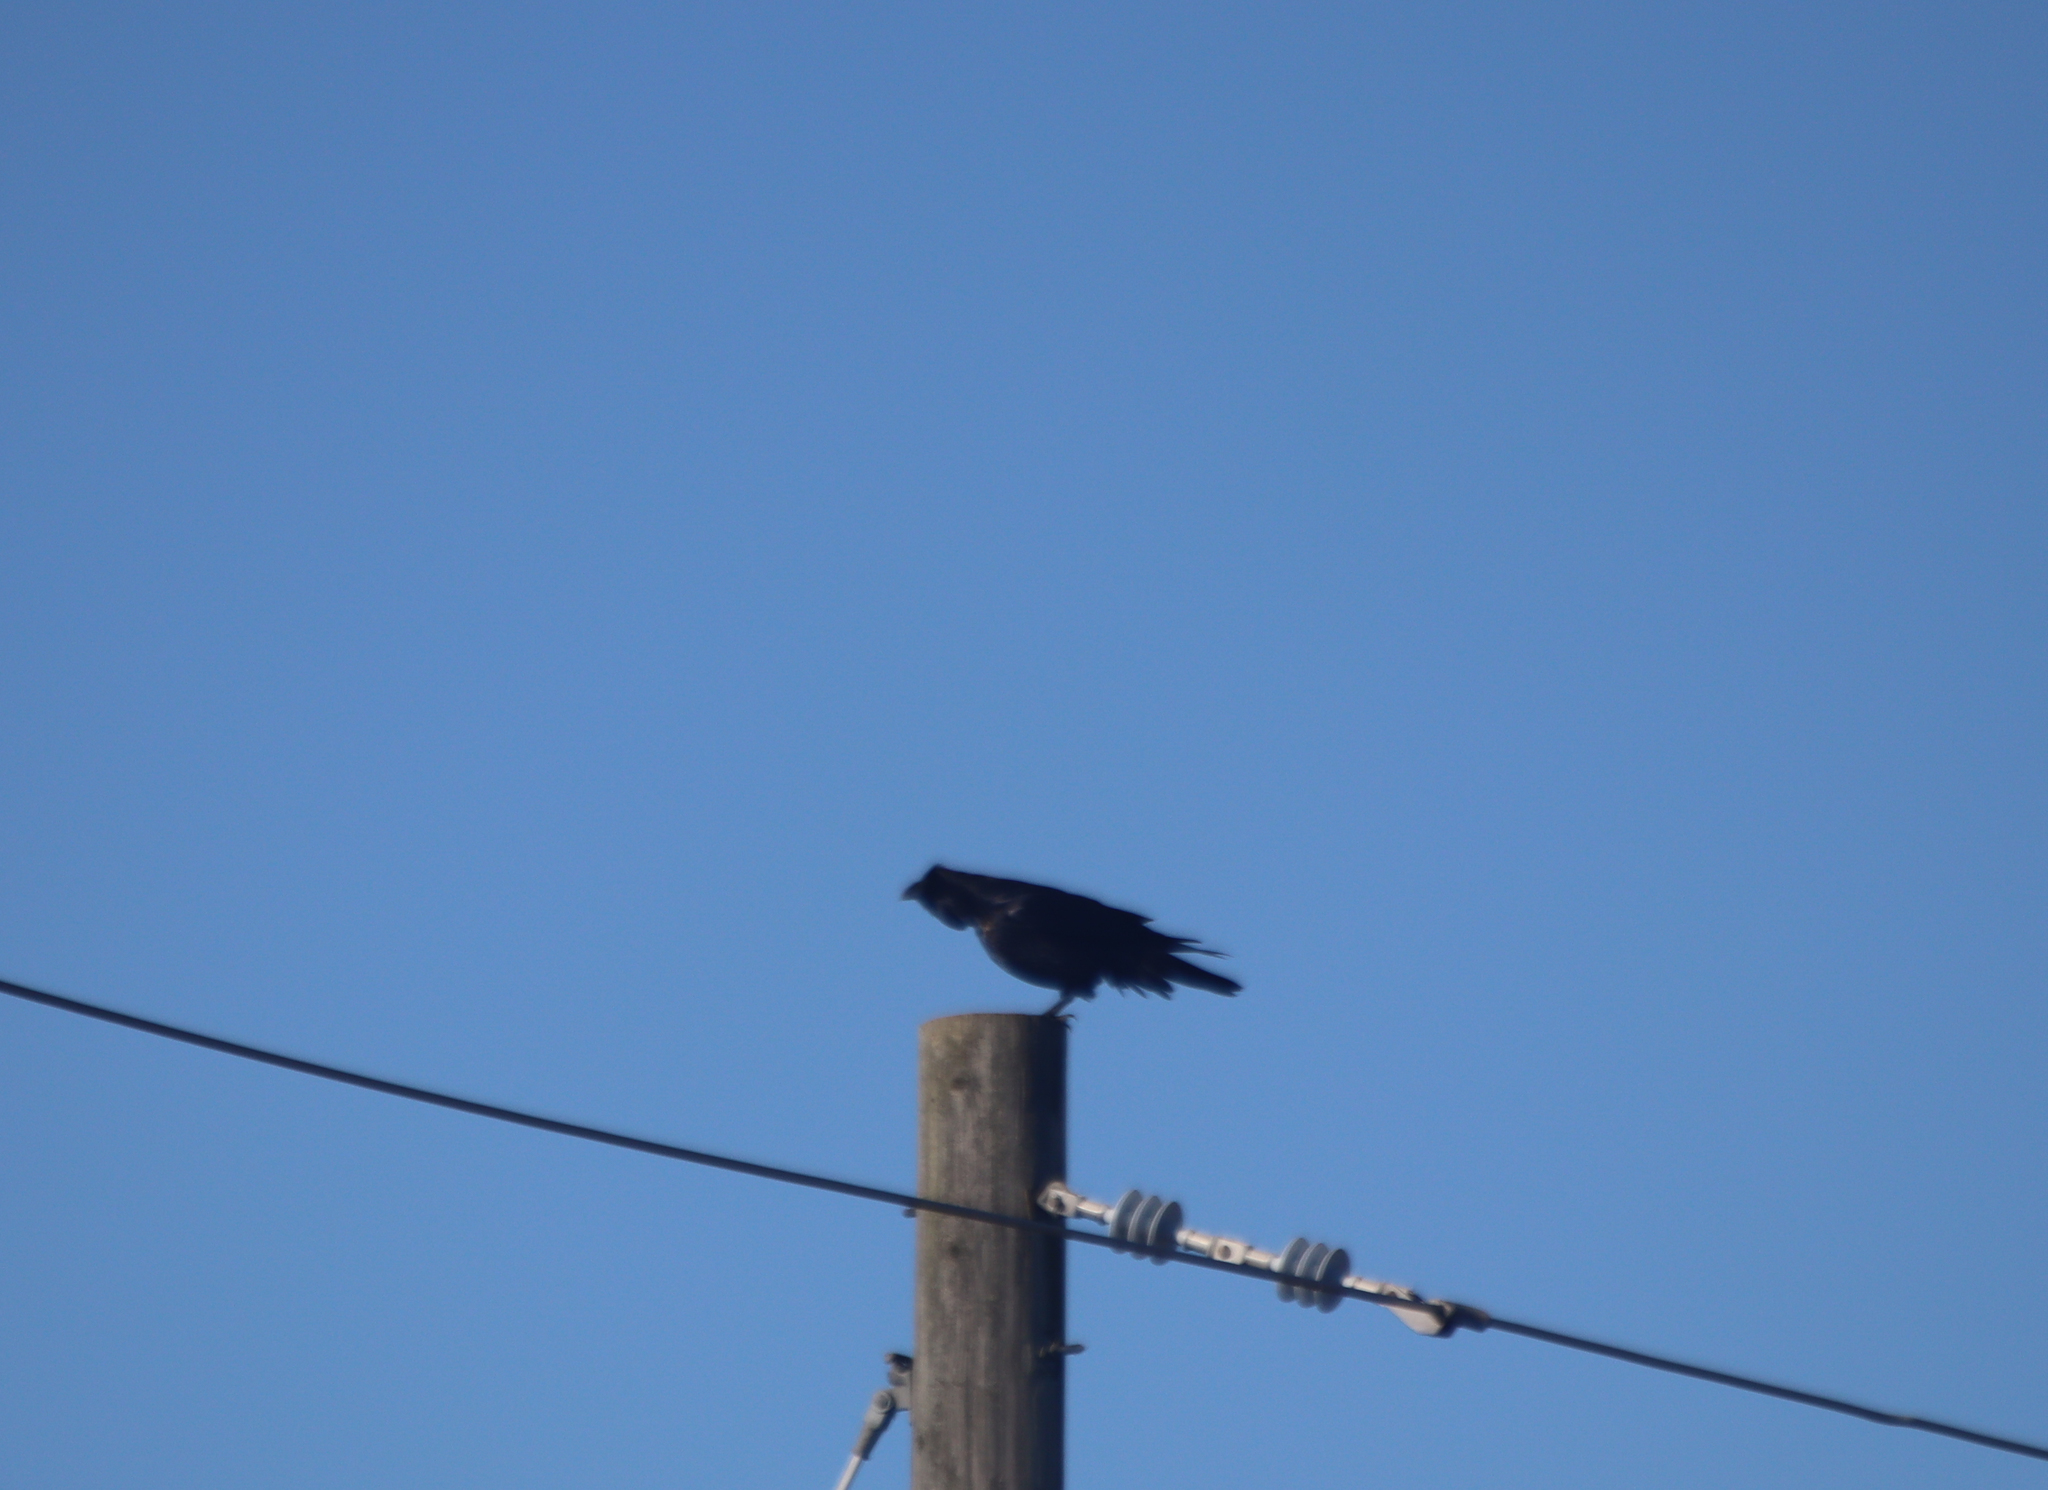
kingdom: Animalia
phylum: Chordata
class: Aves
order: Passeriformes
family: Corvidae
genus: Corvus
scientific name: Corvus corax
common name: Common raven
